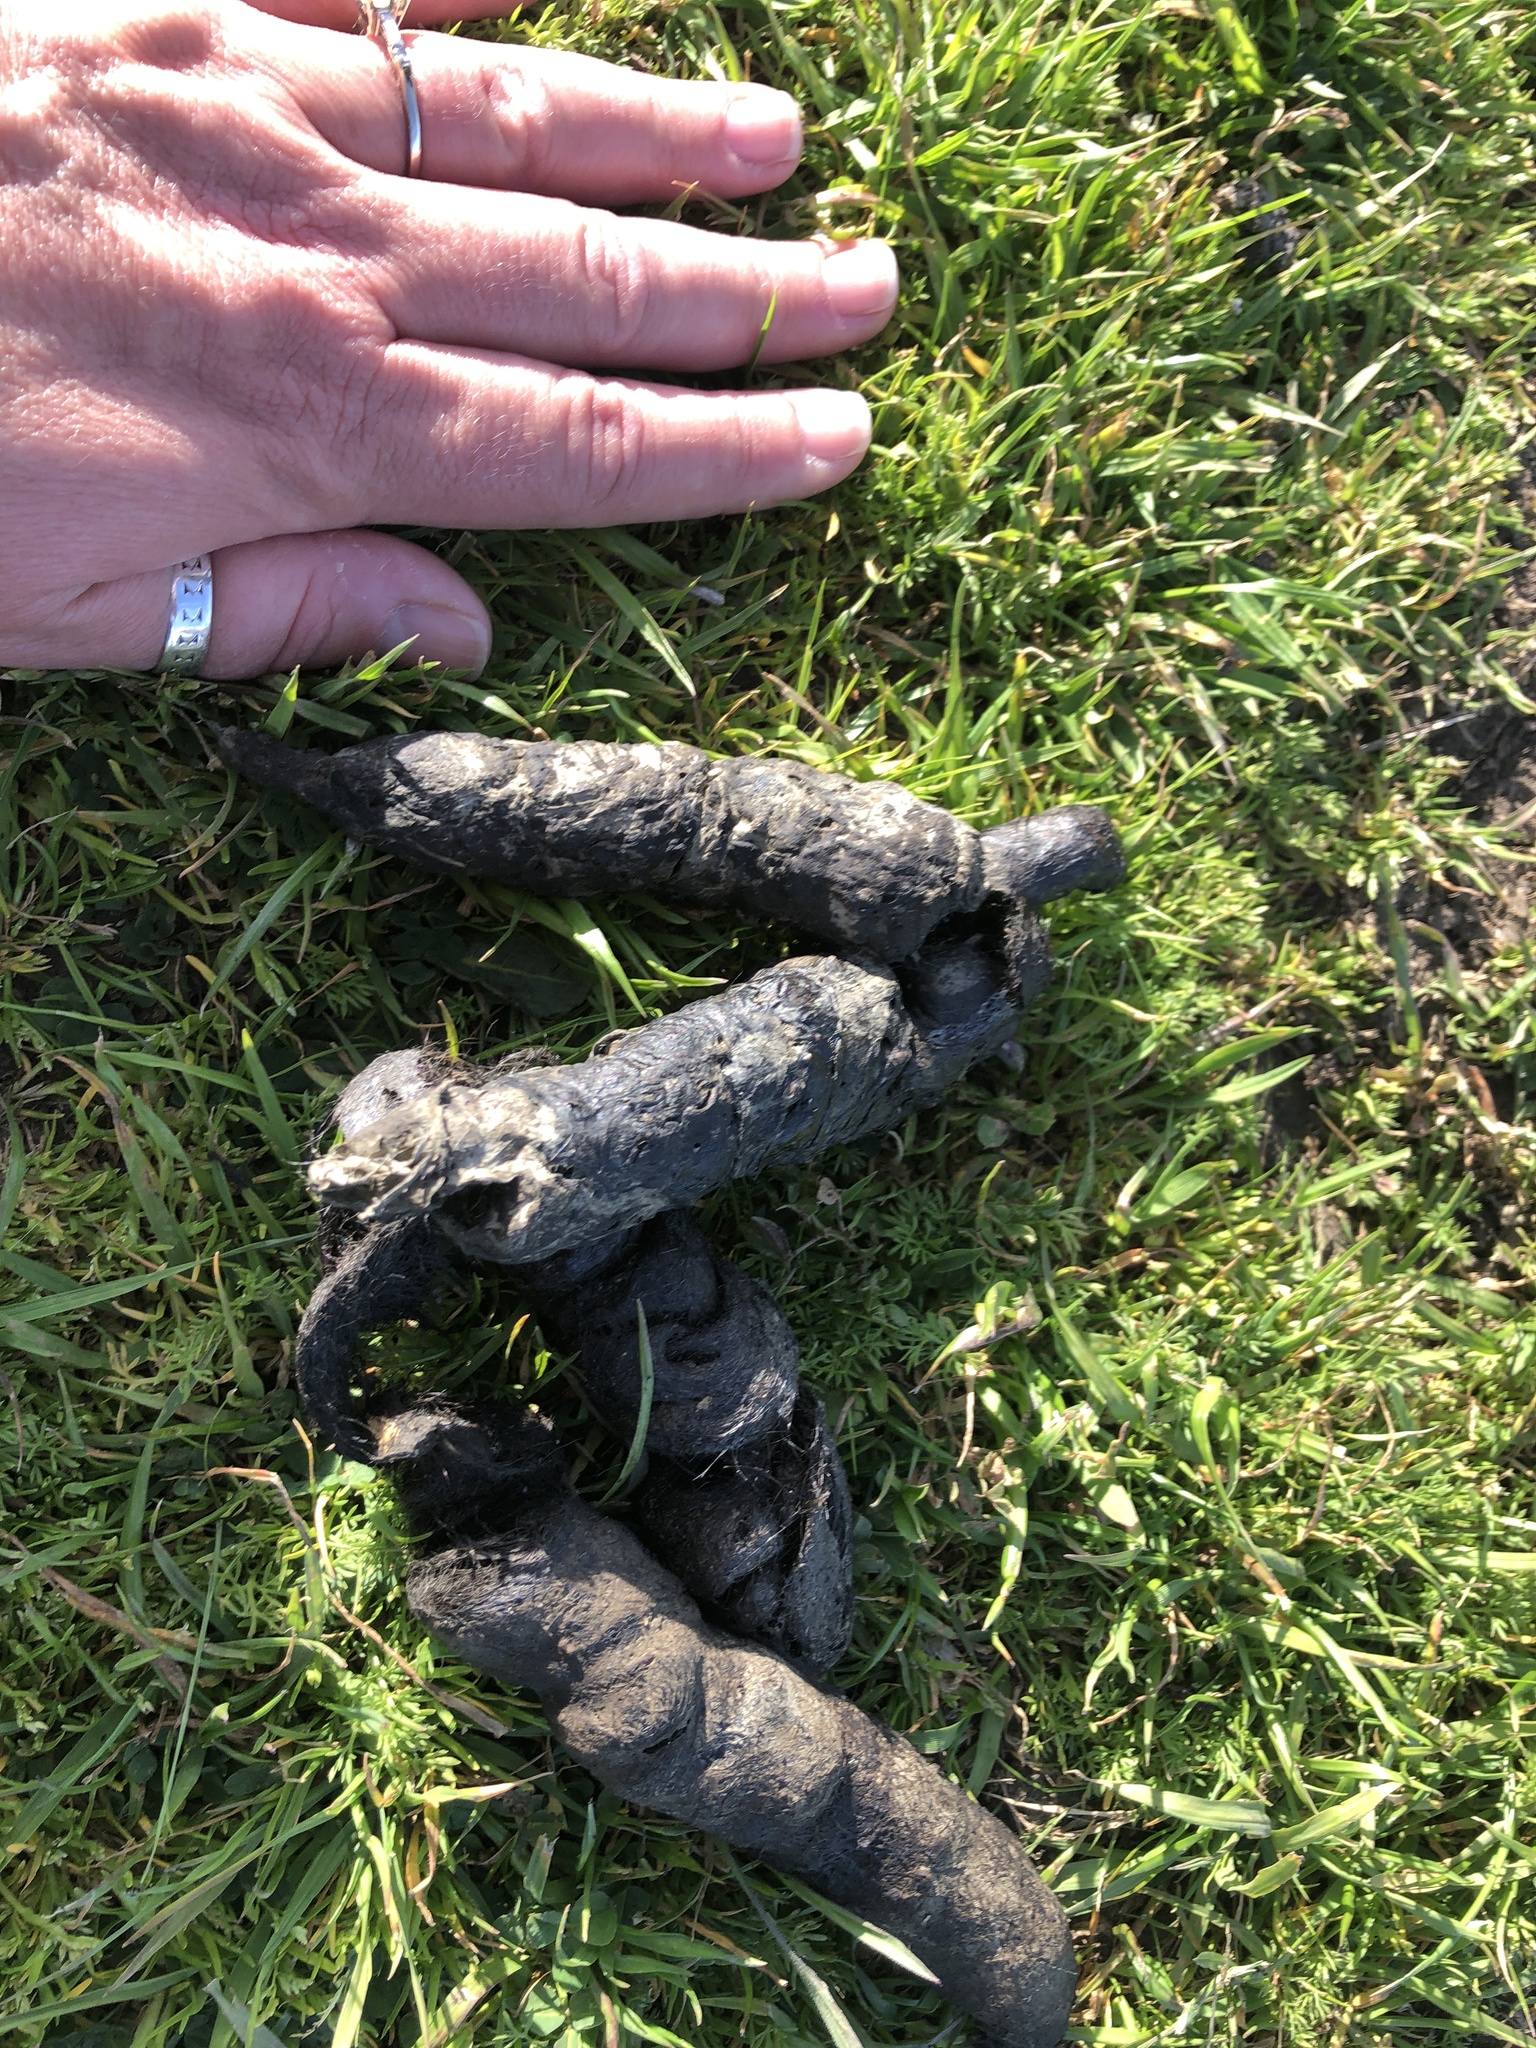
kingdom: Animalia
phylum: Chordata
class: Mammalia
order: Carnivora
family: Felidae
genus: Puma
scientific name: Puma concolor
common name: Puma
